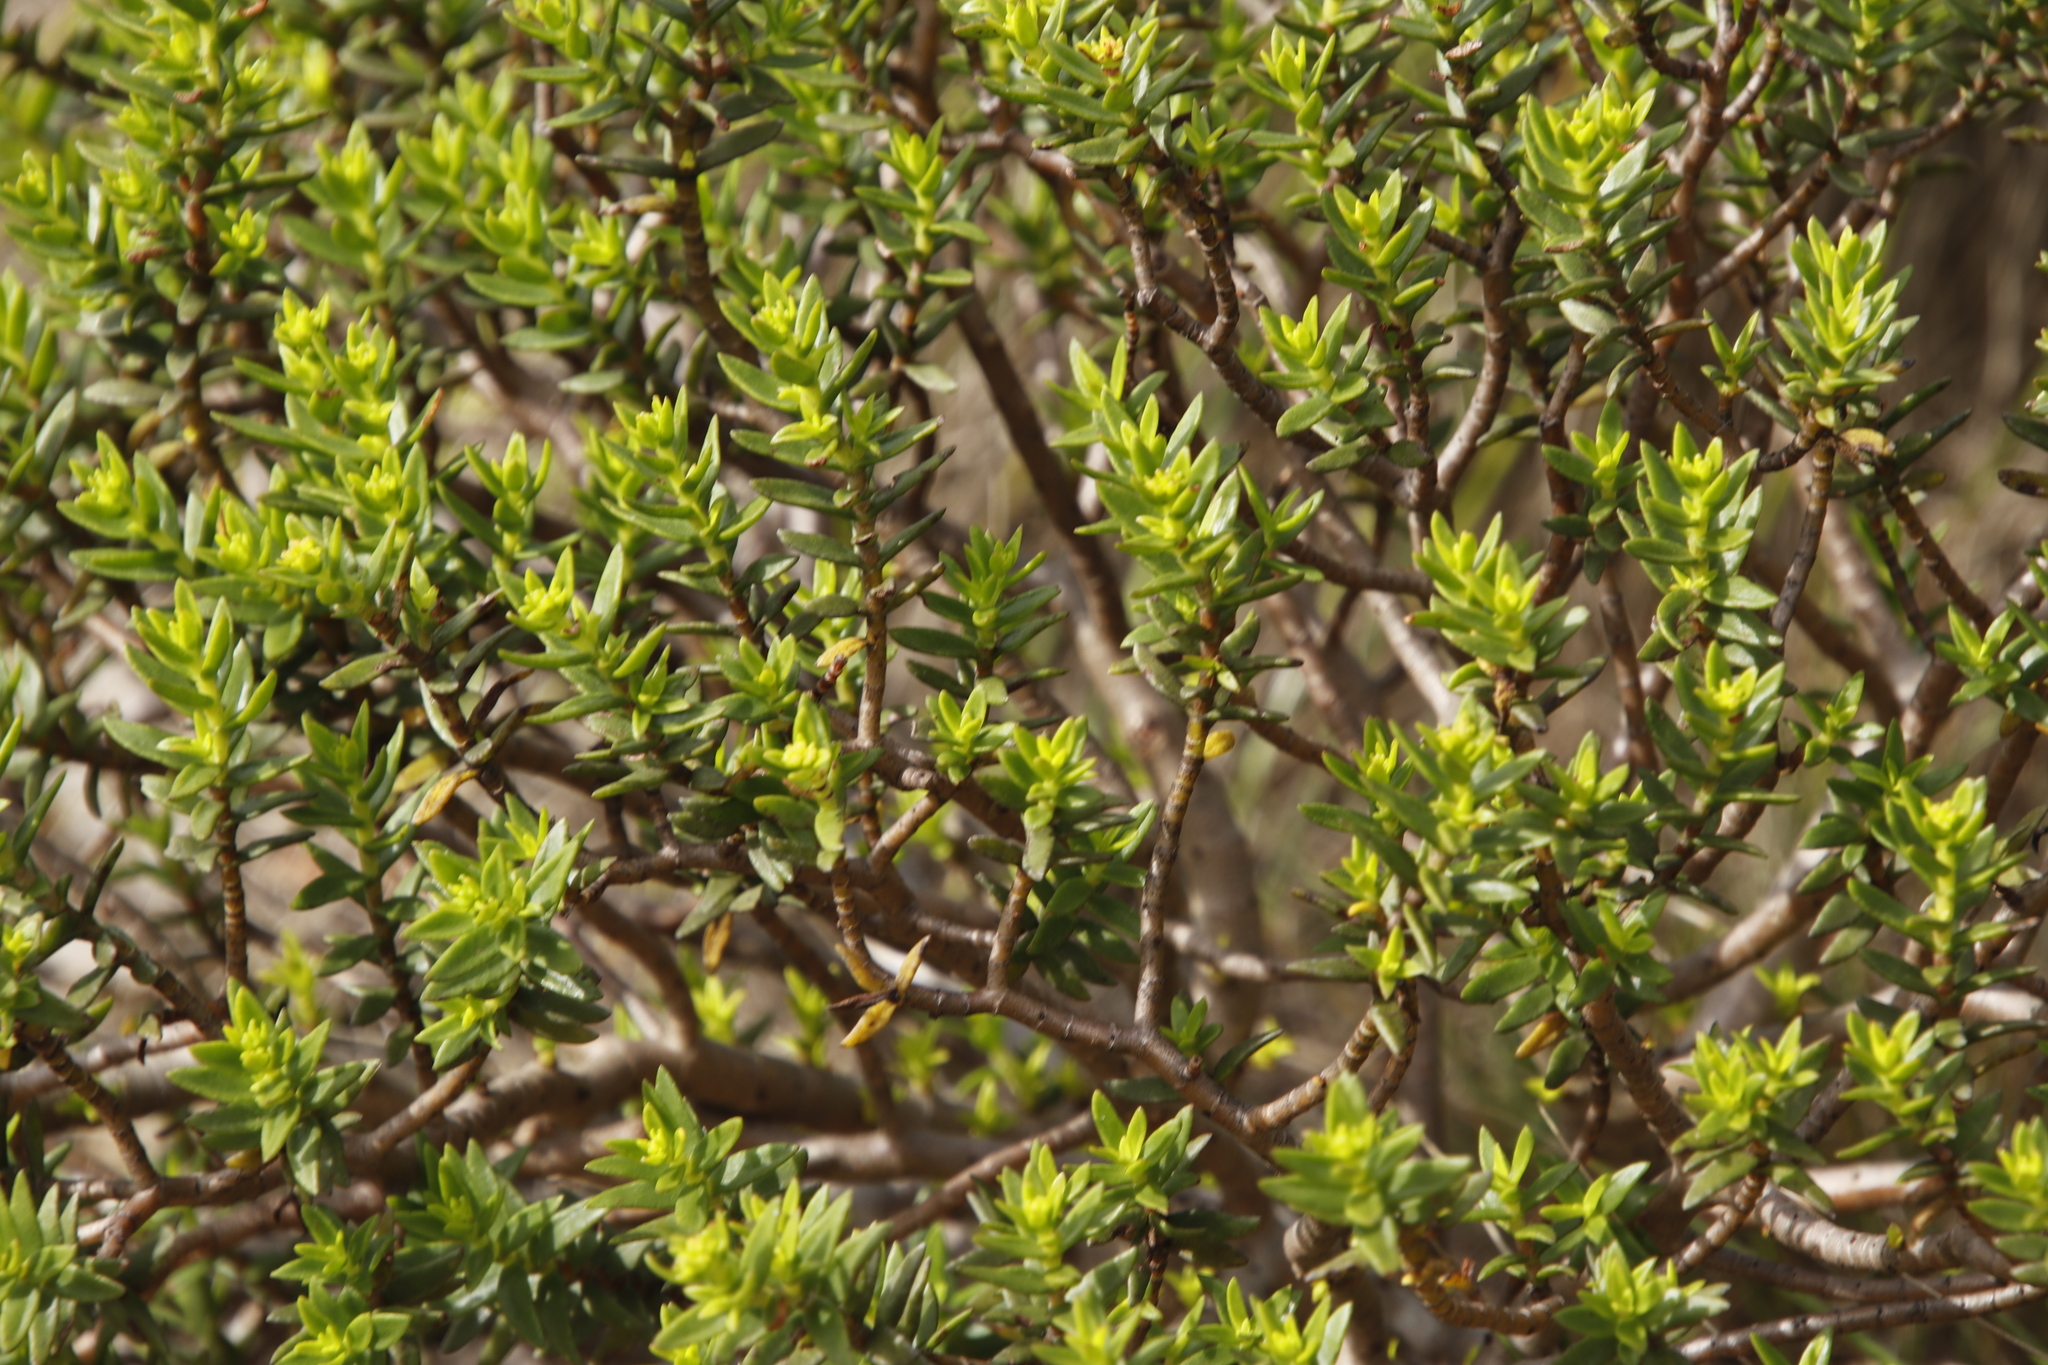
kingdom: Plantae
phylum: Tracheophyta
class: Magnoliopsida
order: Saxifragales
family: Crassulaceae
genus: Crassula
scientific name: Crassula sarcocaulis
